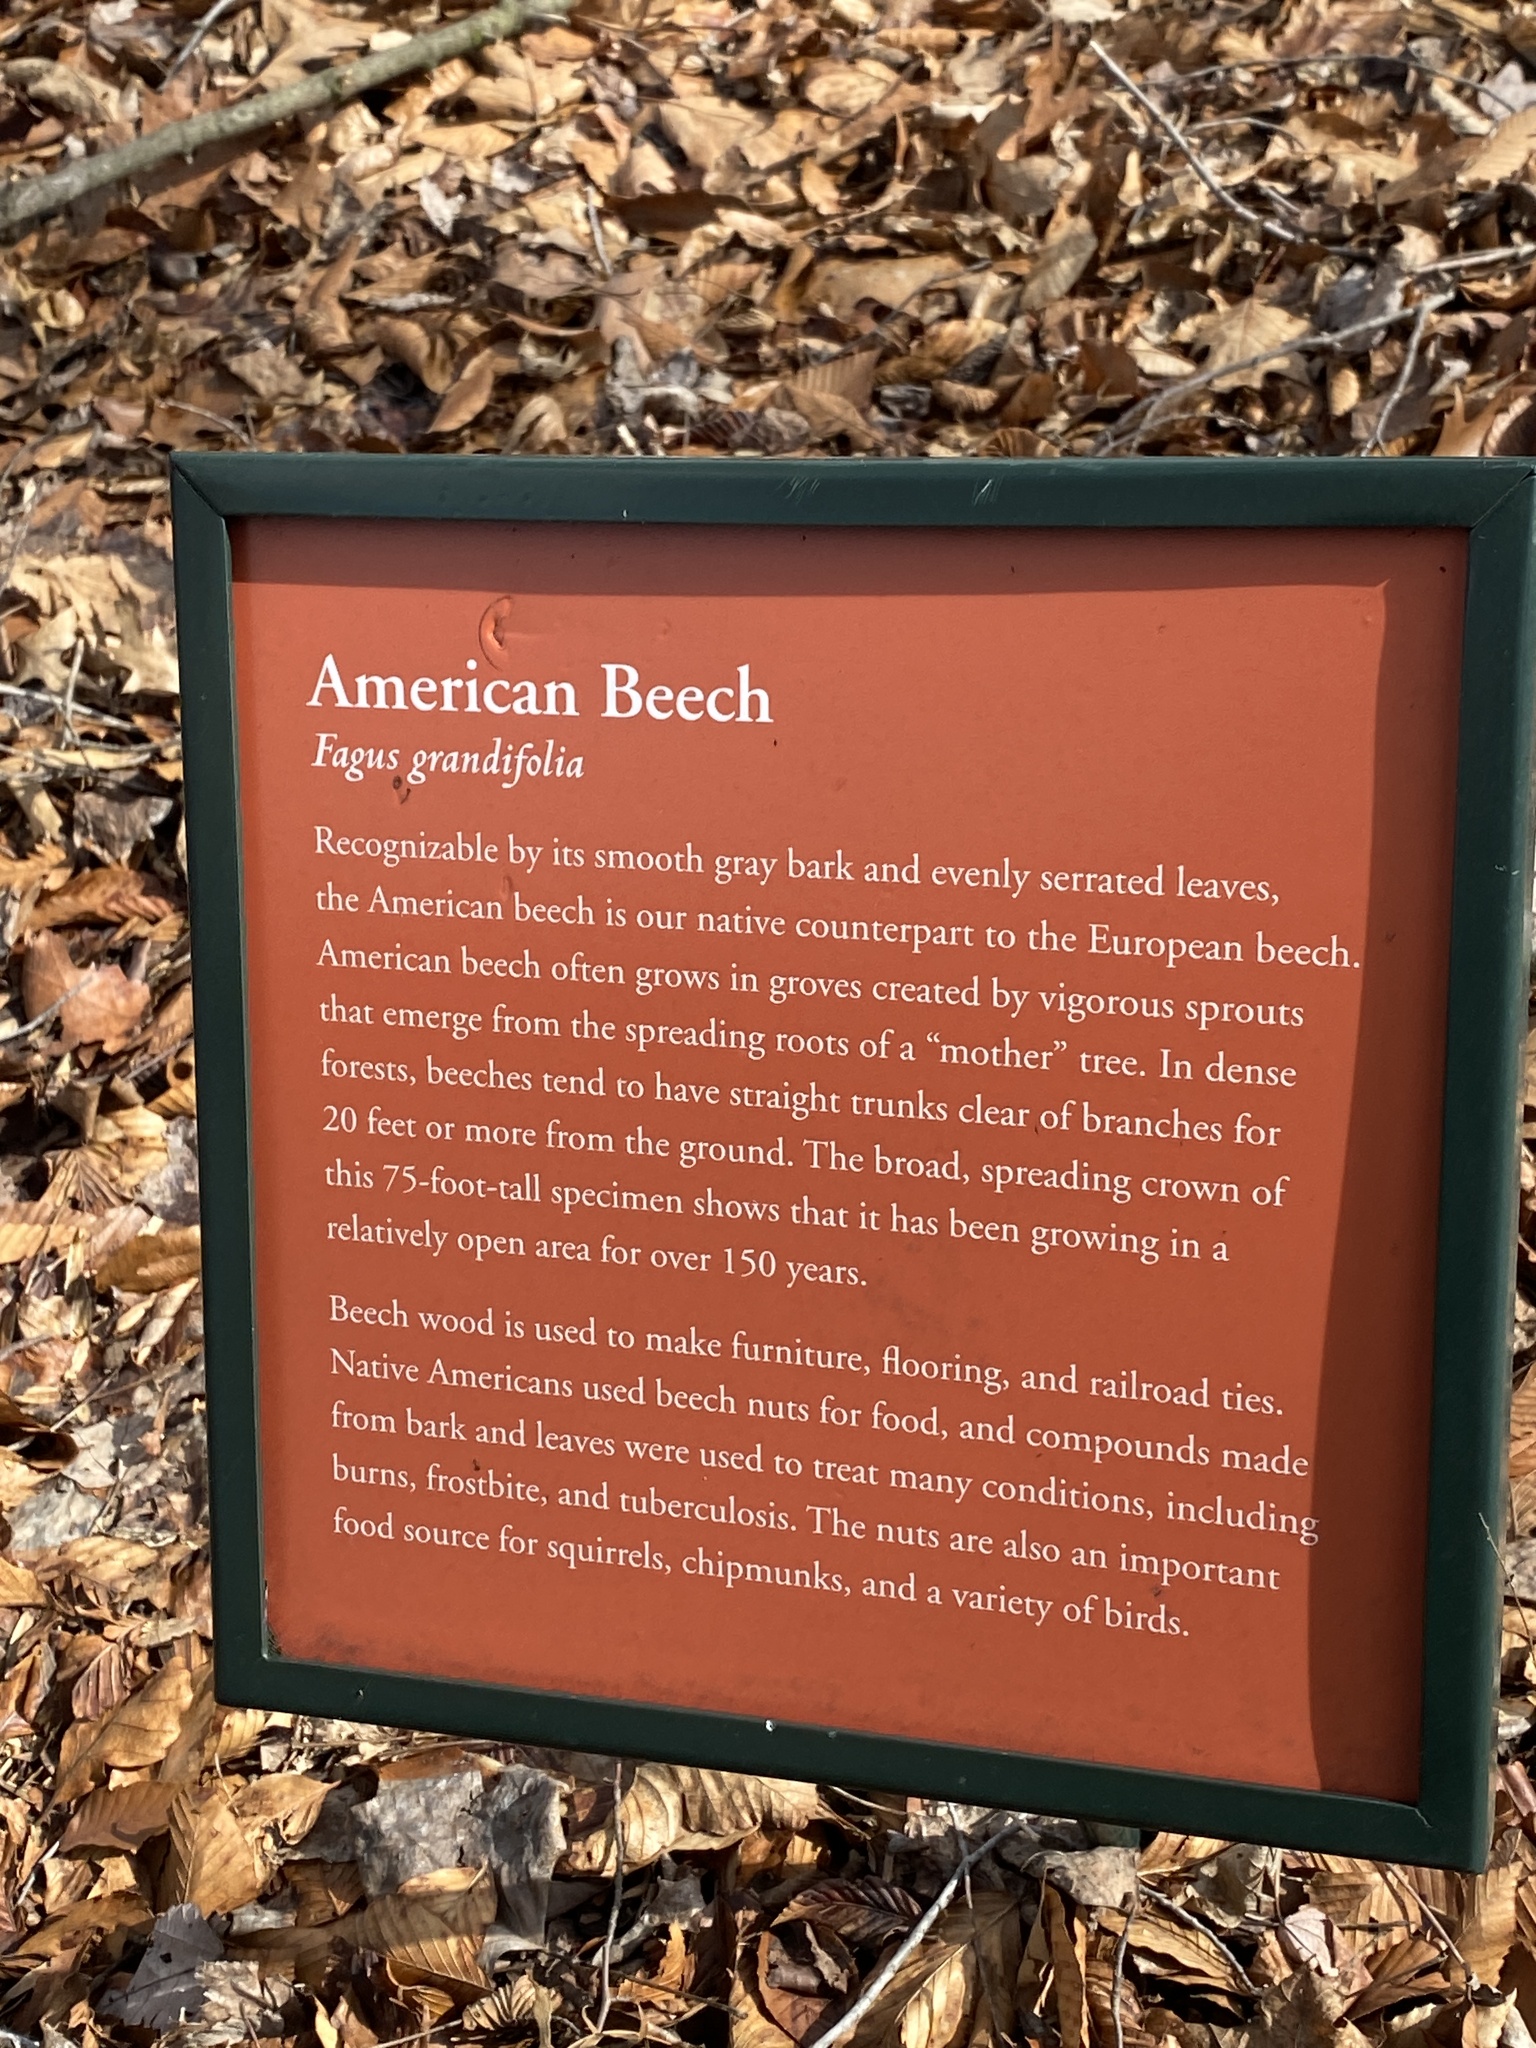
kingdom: Plantae
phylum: Tracheophyta
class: Magnoliopsida
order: Fagales
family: Fagaceae
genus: Fagus
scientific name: Fagus grandifolia
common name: American beech
